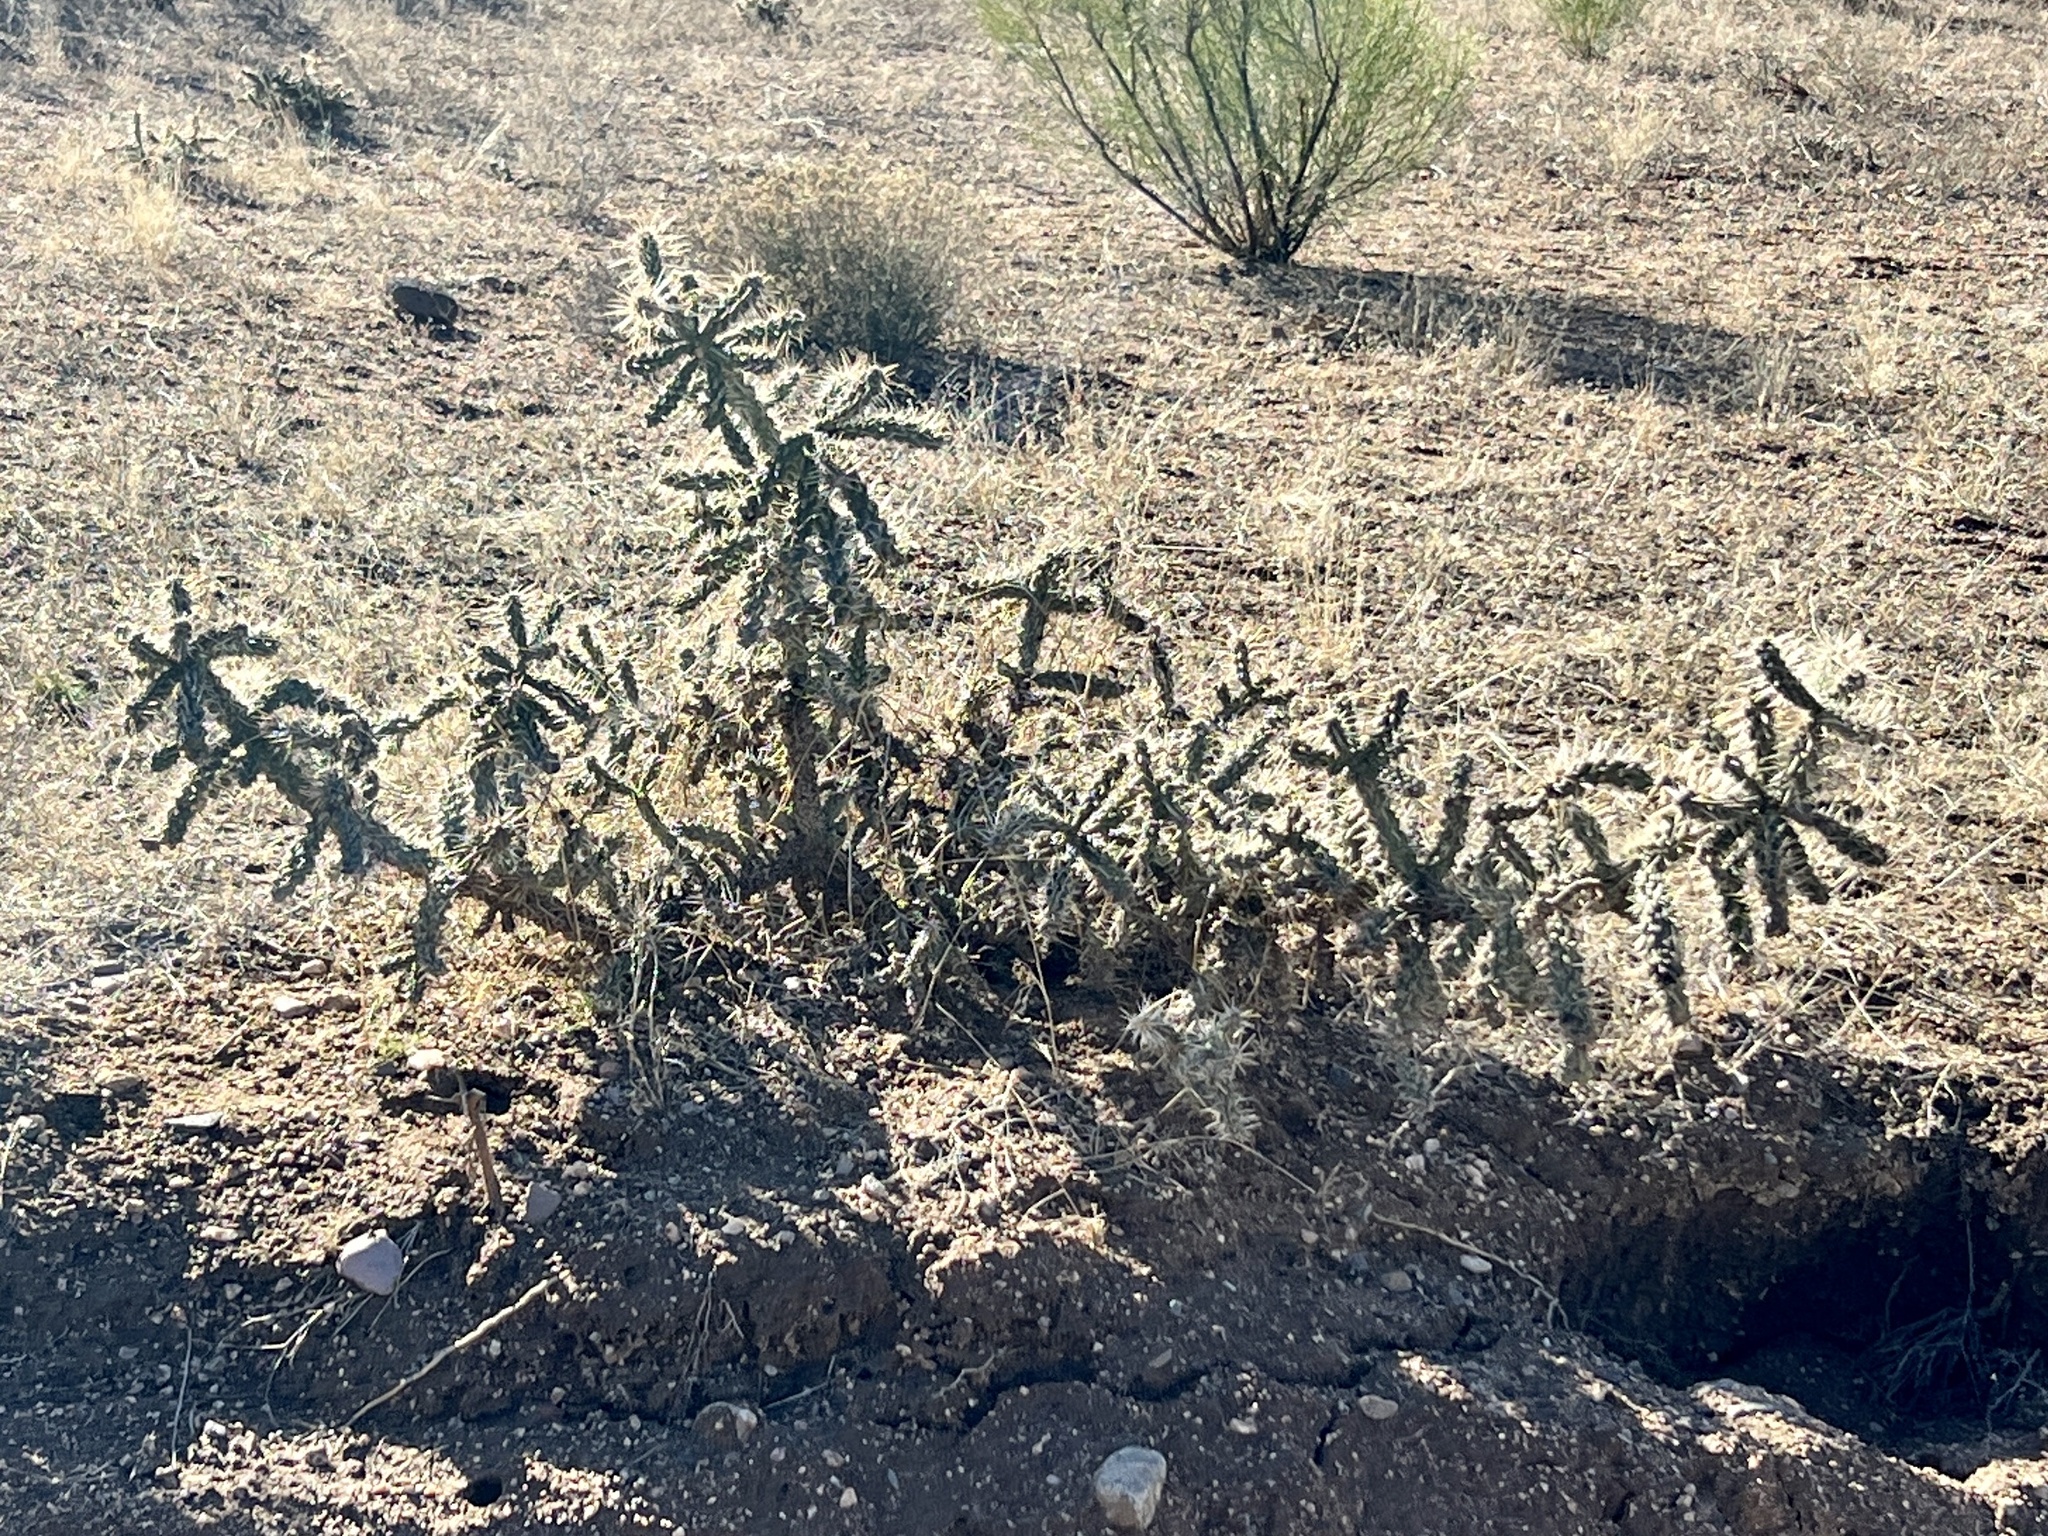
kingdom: Plantae
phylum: Tracheophyta
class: Magnoliopsida
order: Caryophyllales
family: Cactaceae
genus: Cylindropuntia
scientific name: Cylindropuntia whipplei
